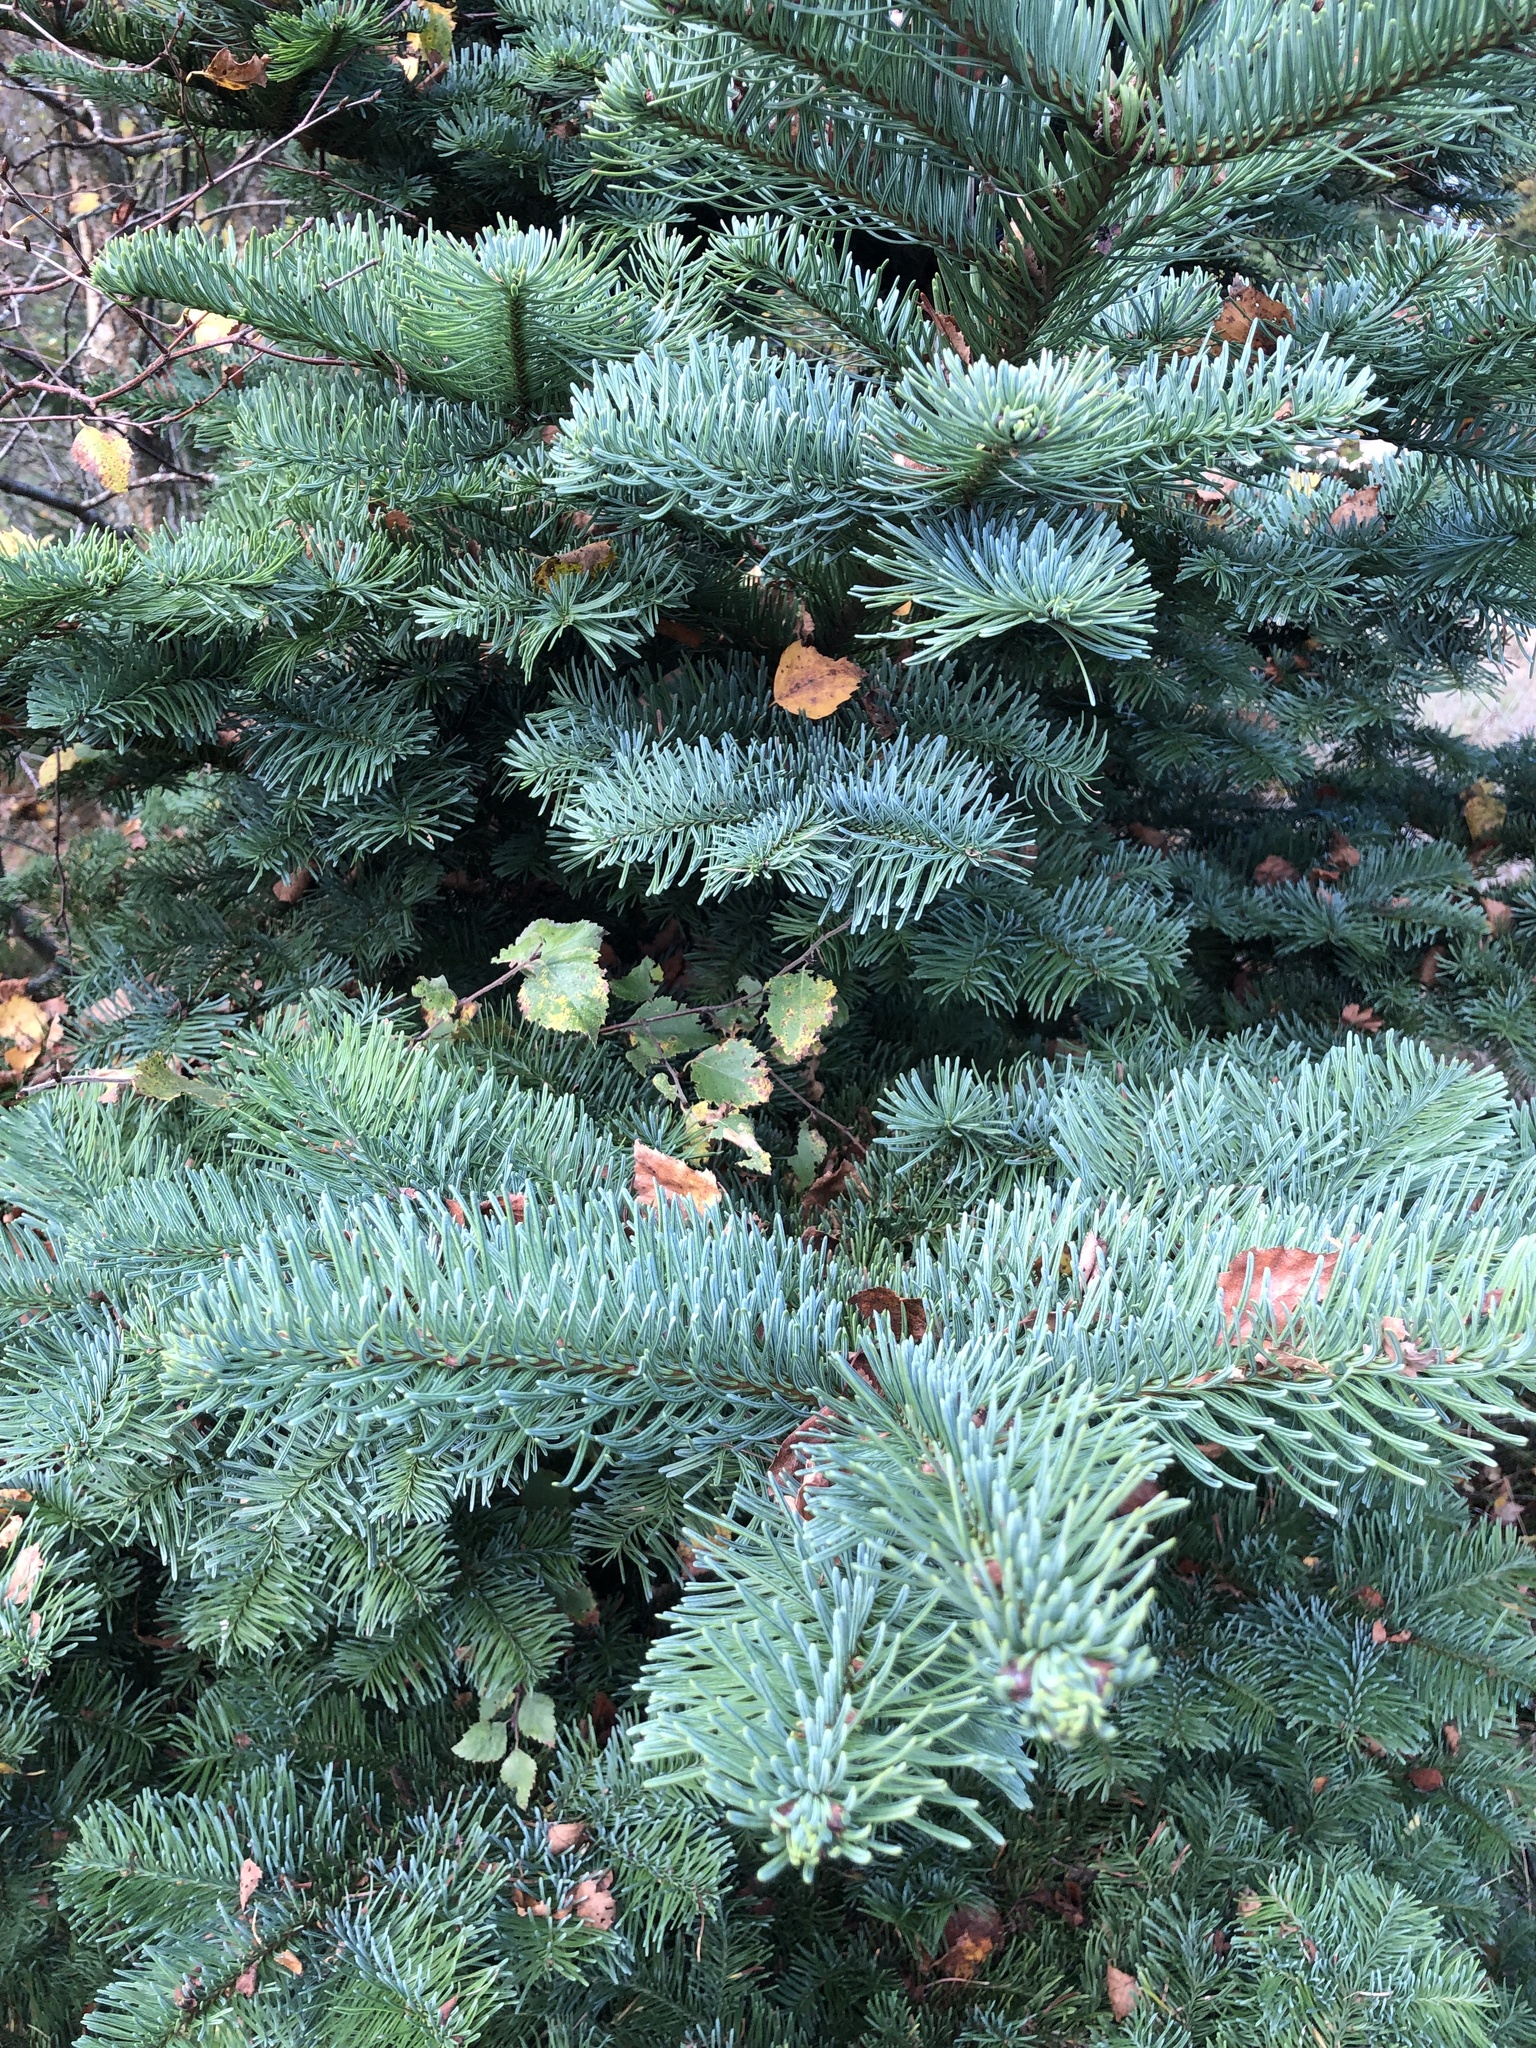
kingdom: Plantae
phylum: Tracheophyta
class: Pinopsida
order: Pinales
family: Pinaceae
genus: Abies
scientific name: Abies procera
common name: Noble fir
